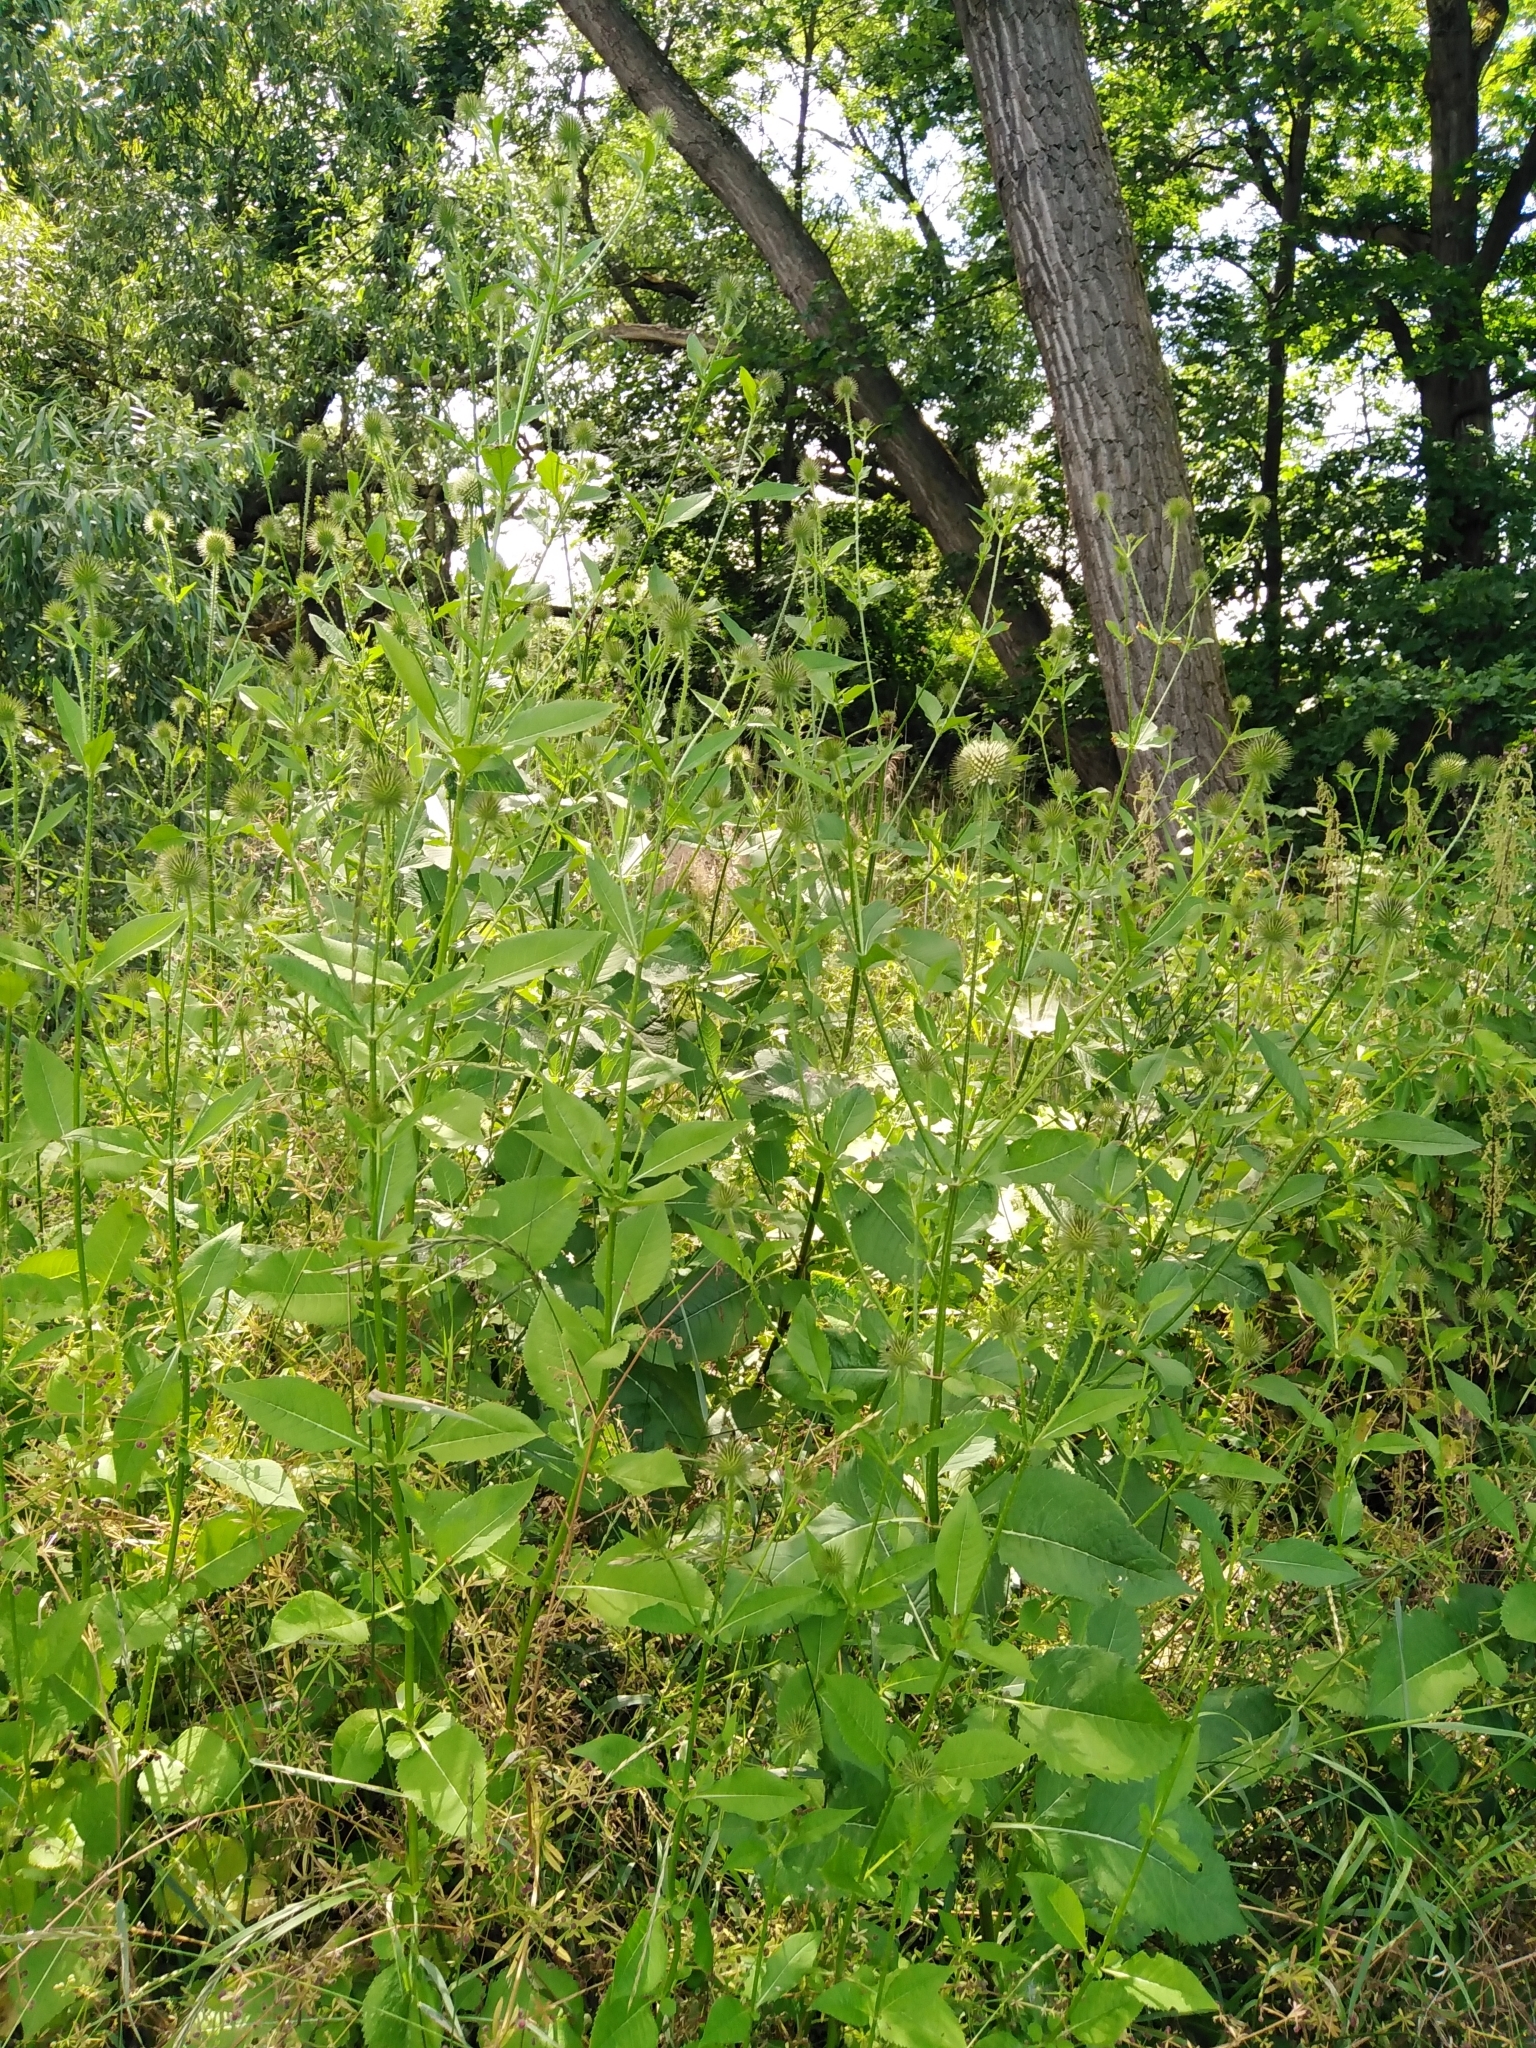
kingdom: Plantae
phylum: Tracheophyta
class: Magnoliopsida
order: Dipsacales
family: Caprifoliaceae
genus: Dipsacus
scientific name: Dipsacus strigosus
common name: Yellow-flowered teasel
